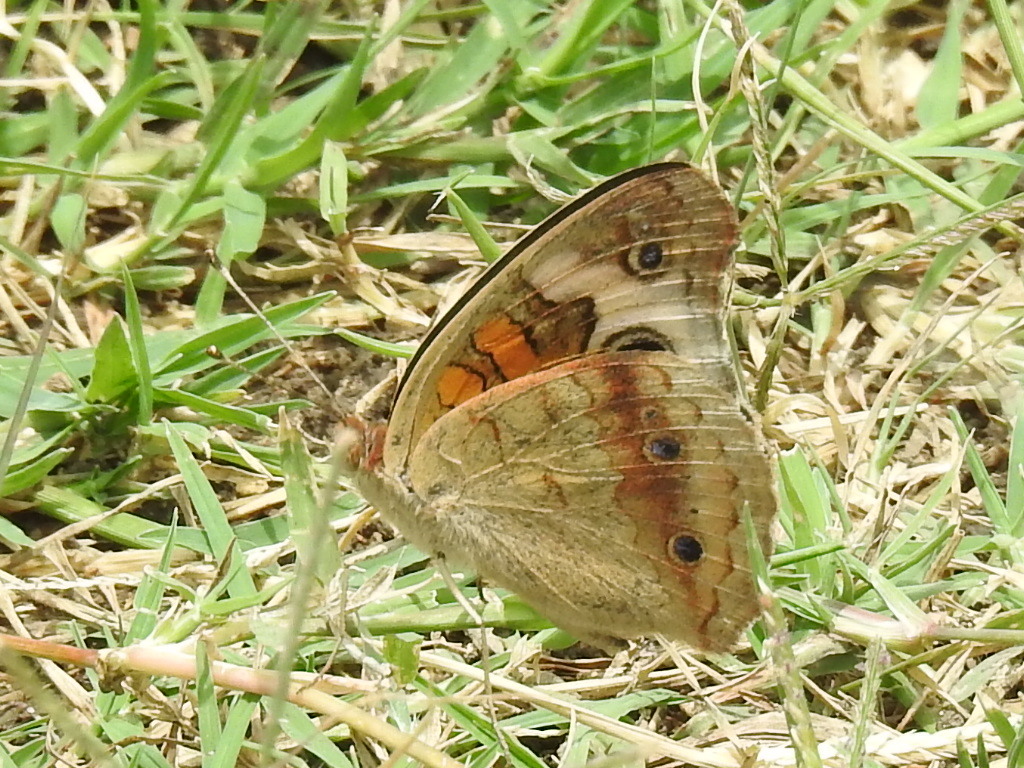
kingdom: Animalia
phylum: Arthropoda
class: Insecta
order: Lepidoptera
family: Nymphalidae
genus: Junonia
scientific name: Junonia coenia
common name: Common buckeye
